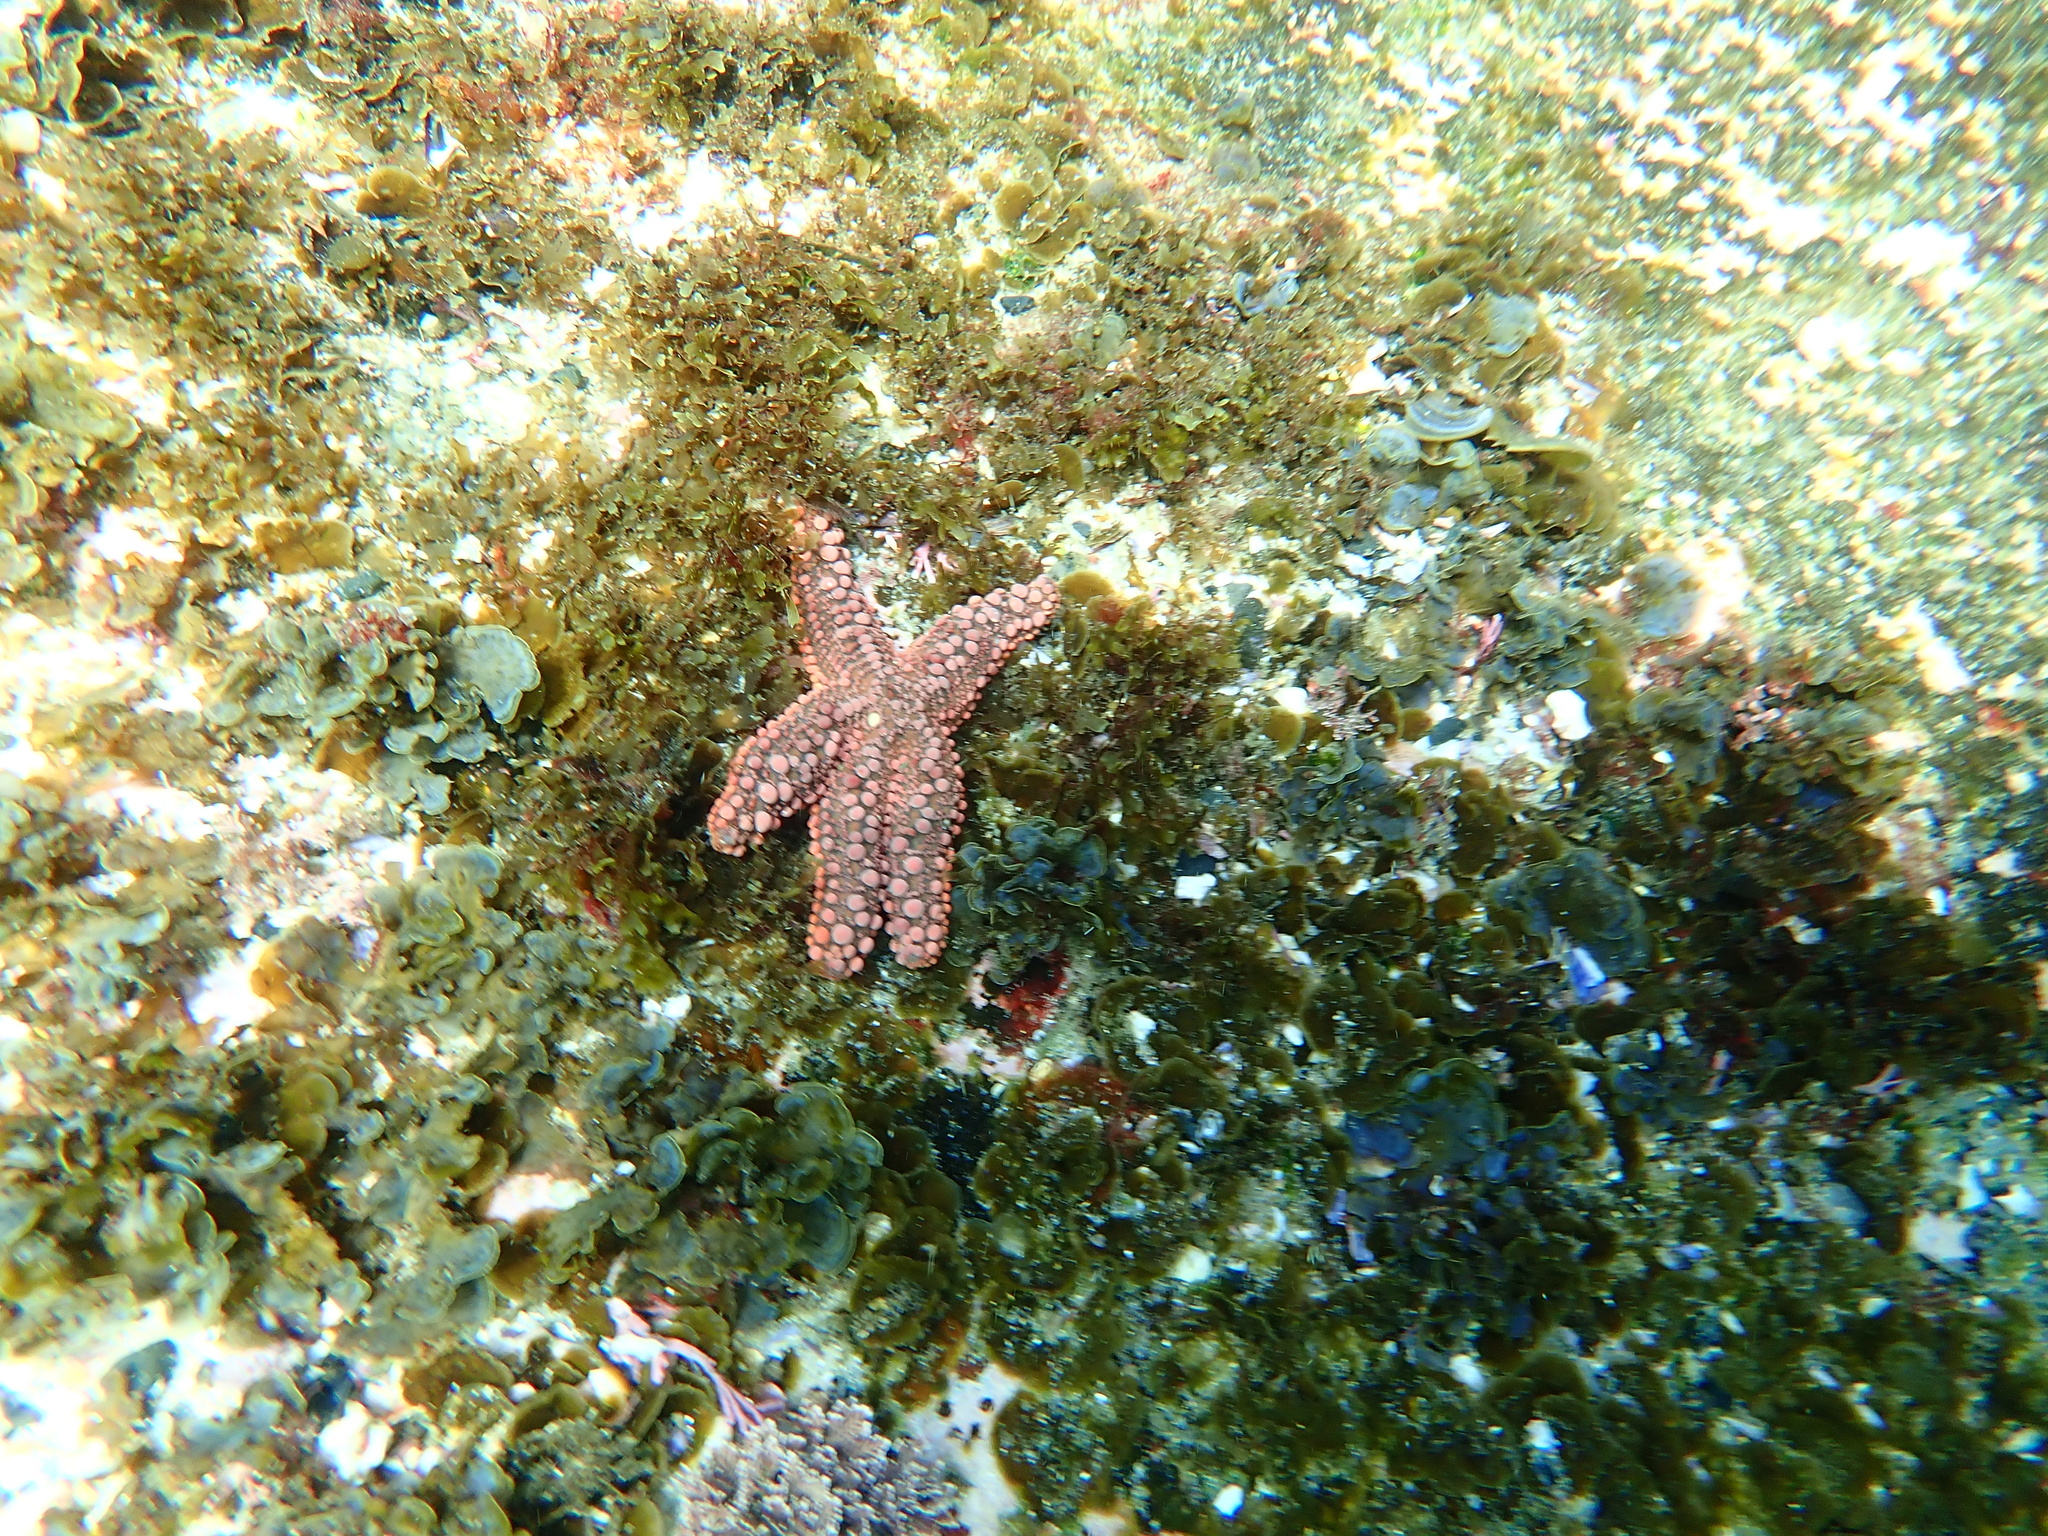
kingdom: Animalia
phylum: Echinodermata
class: Asteroidea
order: Forcipulatida
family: Stichasteridae
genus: Uniophora
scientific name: Uniophora granifera
